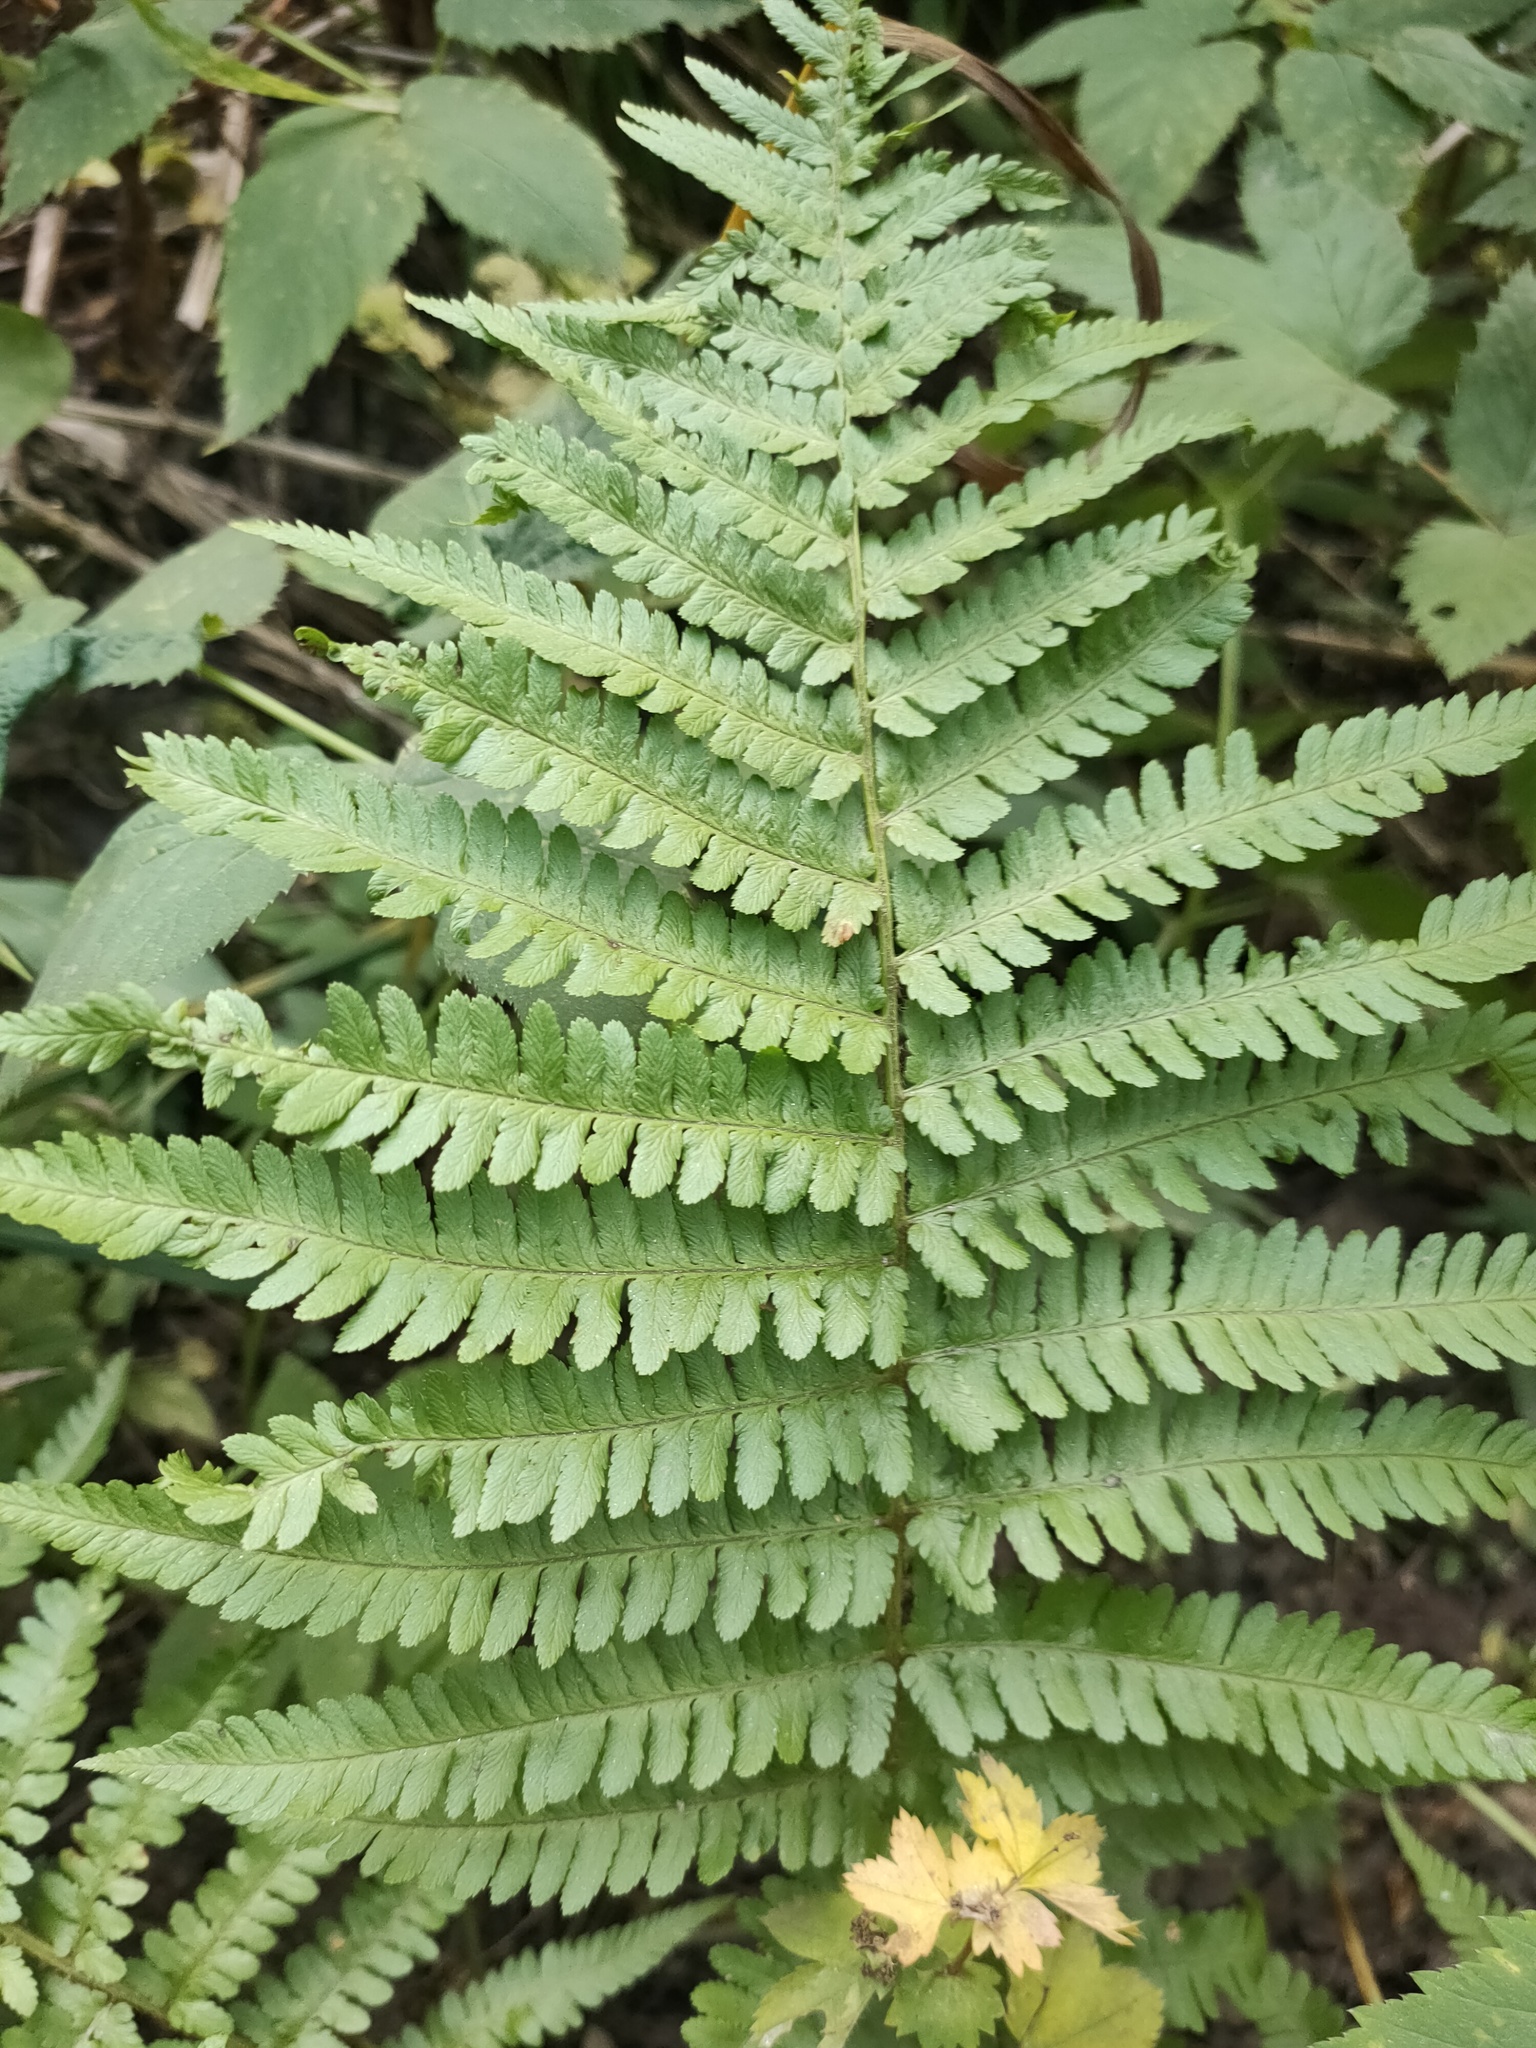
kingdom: Plantae
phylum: Tracheophyta
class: Polypodiopsida
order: Polypodiales
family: Dryopteridaceae
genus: Dryopteris
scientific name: Dryopteris filix-mas
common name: Male fern
